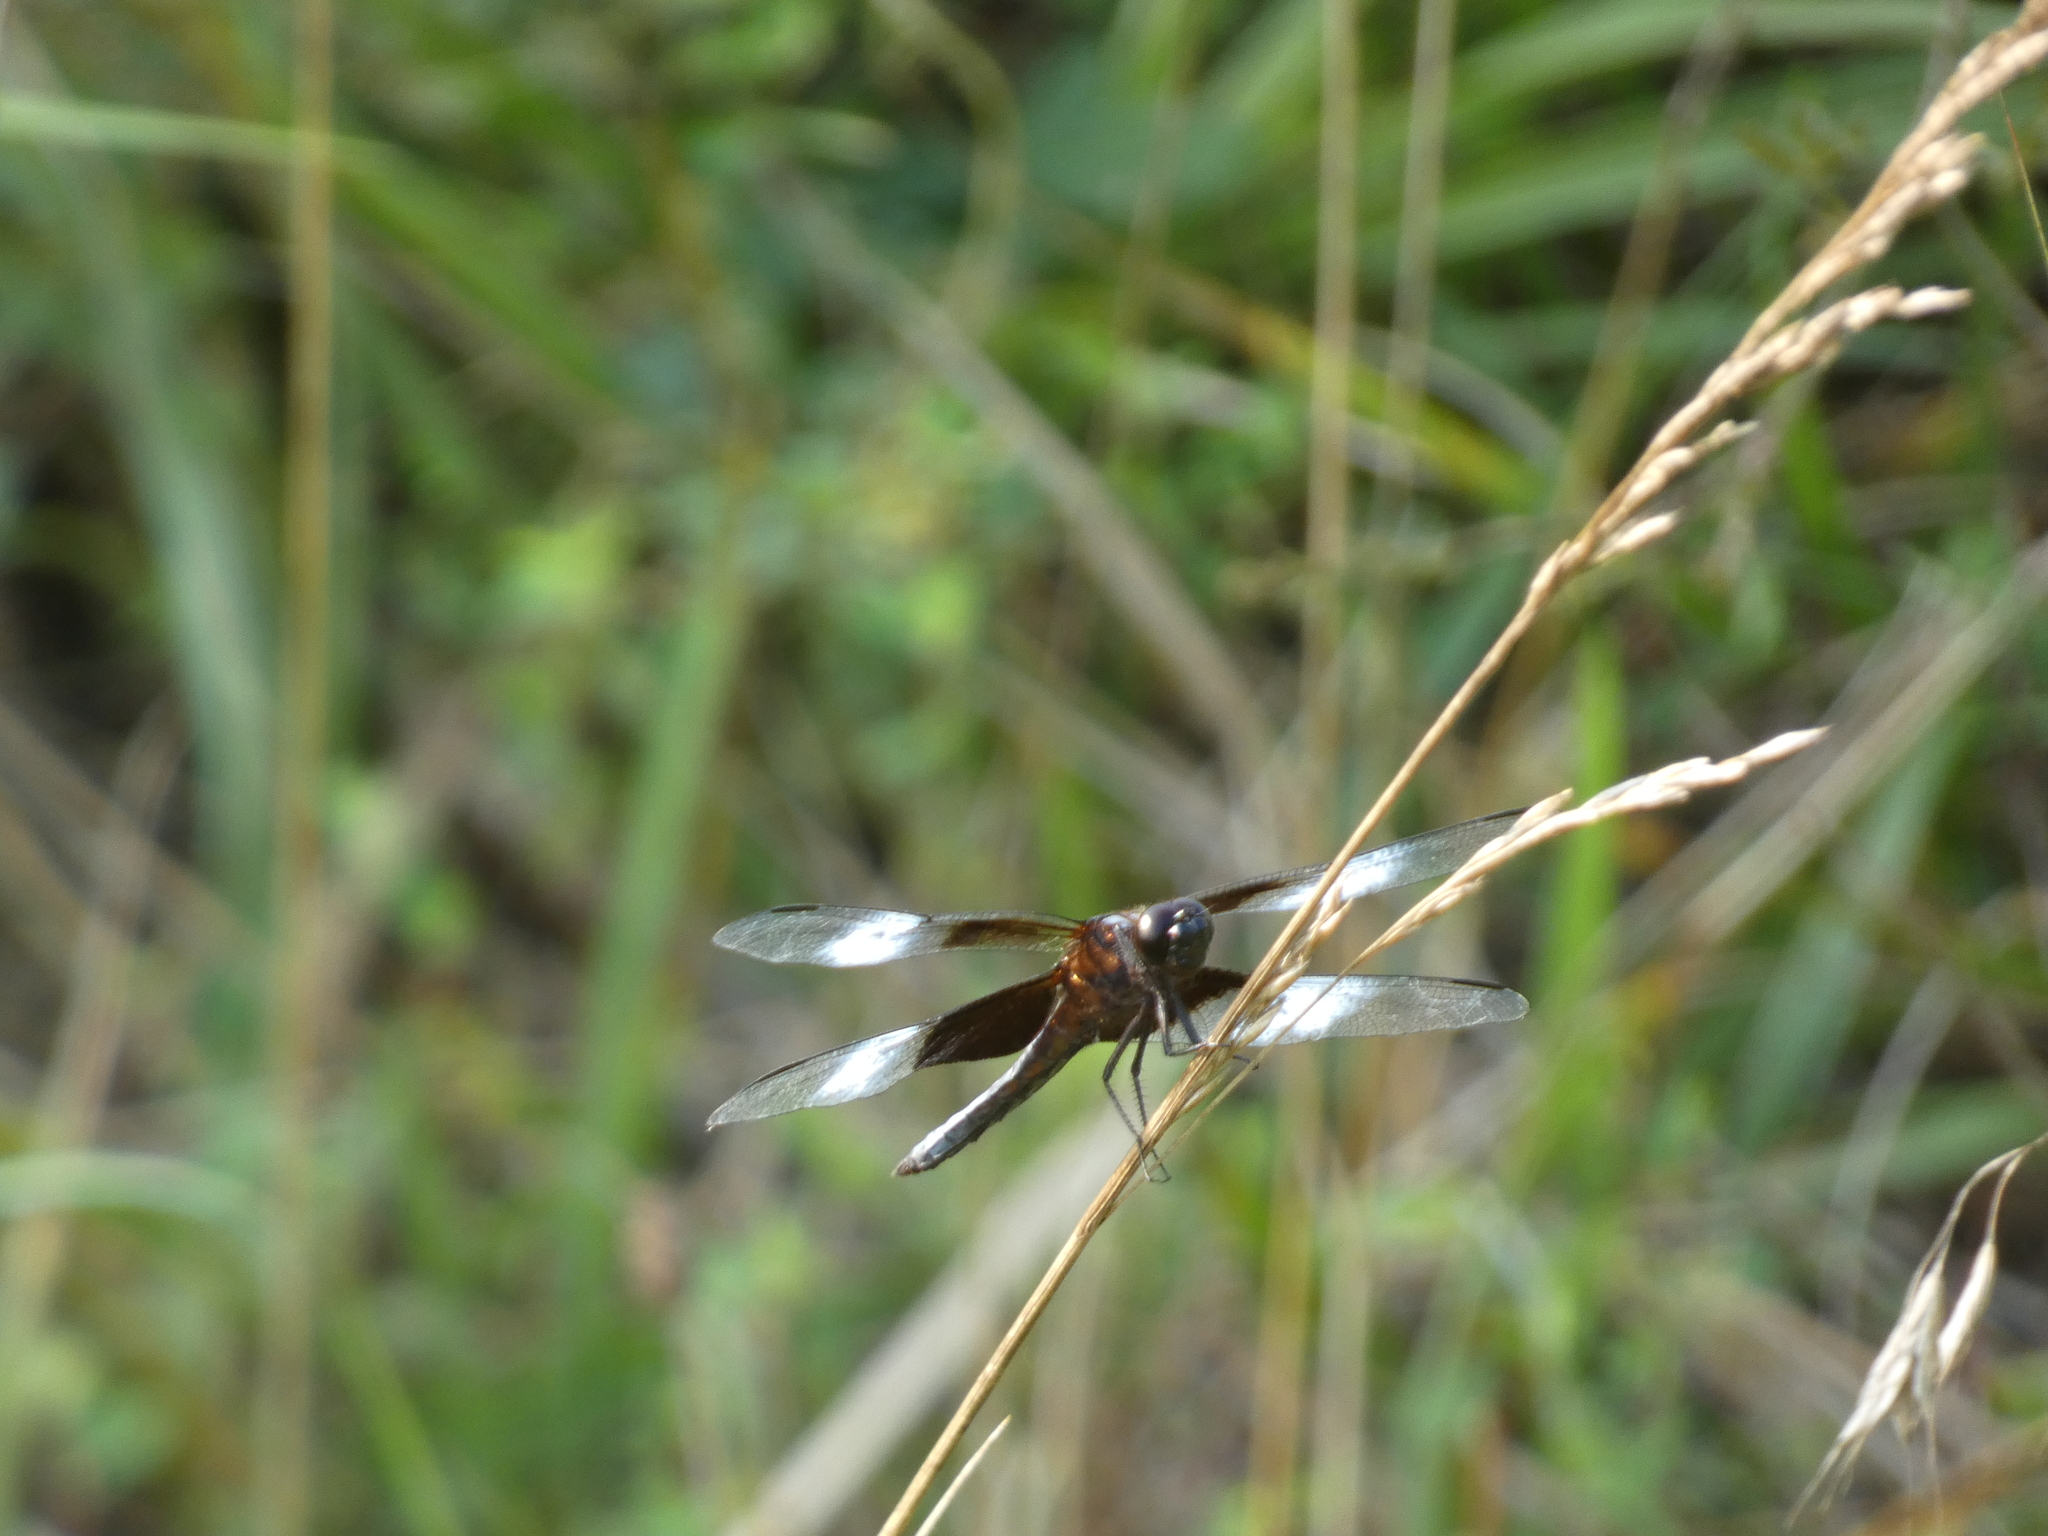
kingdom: Animalia
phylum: Arthropoda
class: Insecta
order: Odonata
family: Libellulidae
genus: Libellula
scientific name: Libellula luctuosa
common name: Widow skimmer
